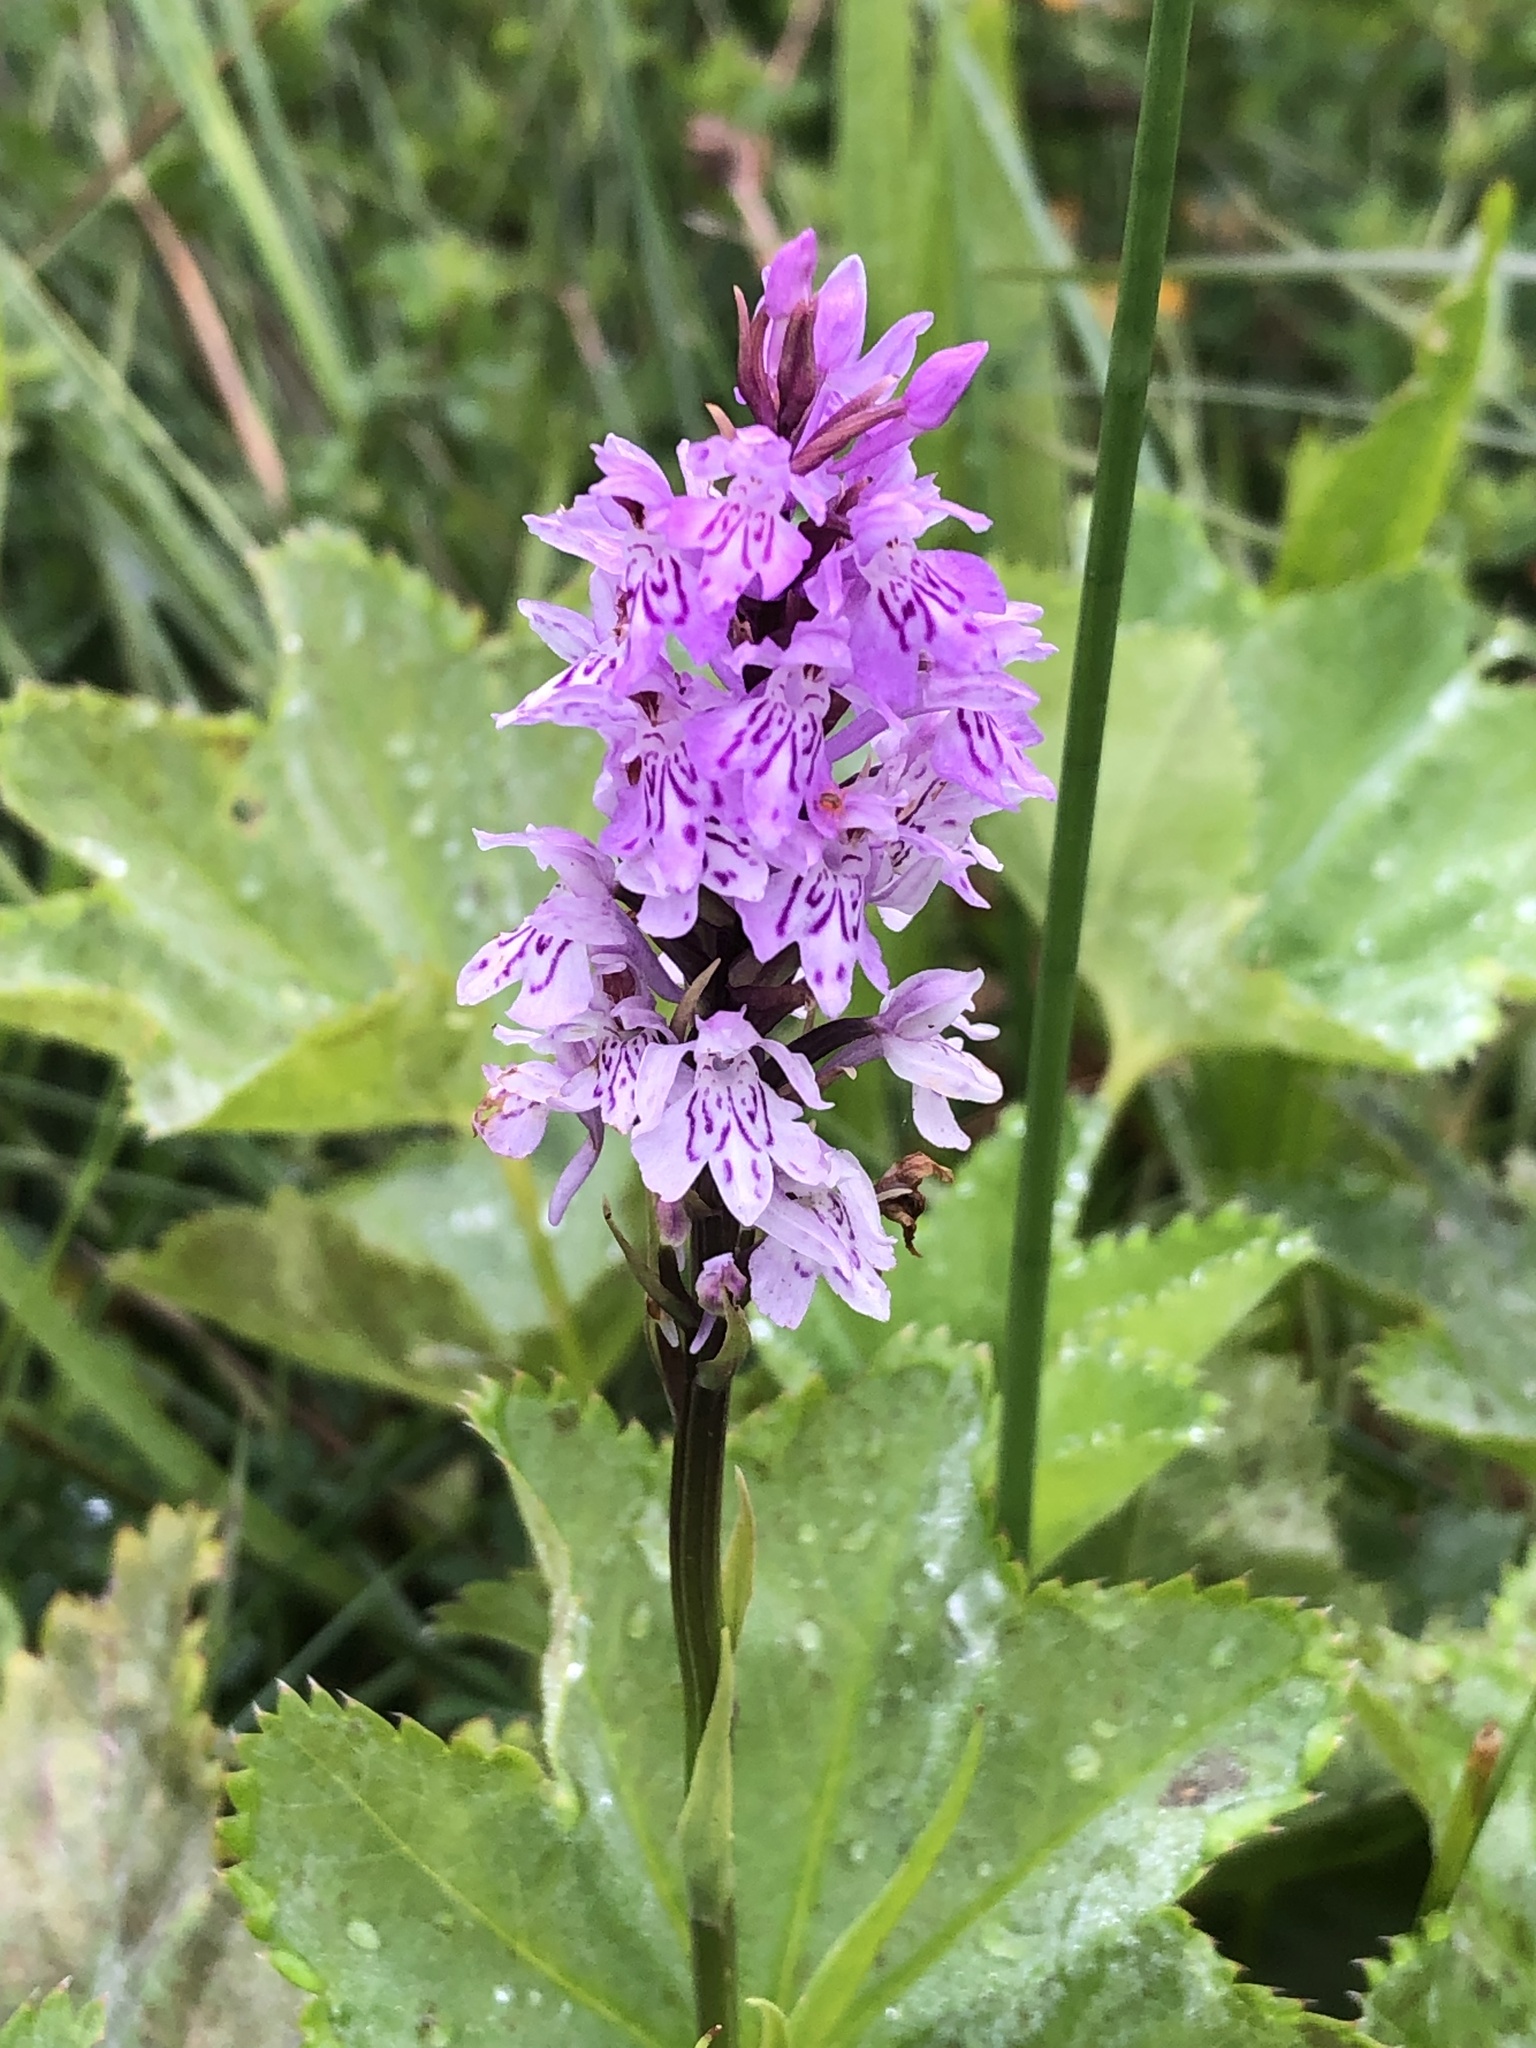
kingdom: Plantae
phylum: Tracheophyta
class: Liliopsida
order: Asparagales
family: Orchidaceae
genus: Dactylorhiza
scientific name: Dactylorhiza maculata
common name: Heath spotted-orchid
